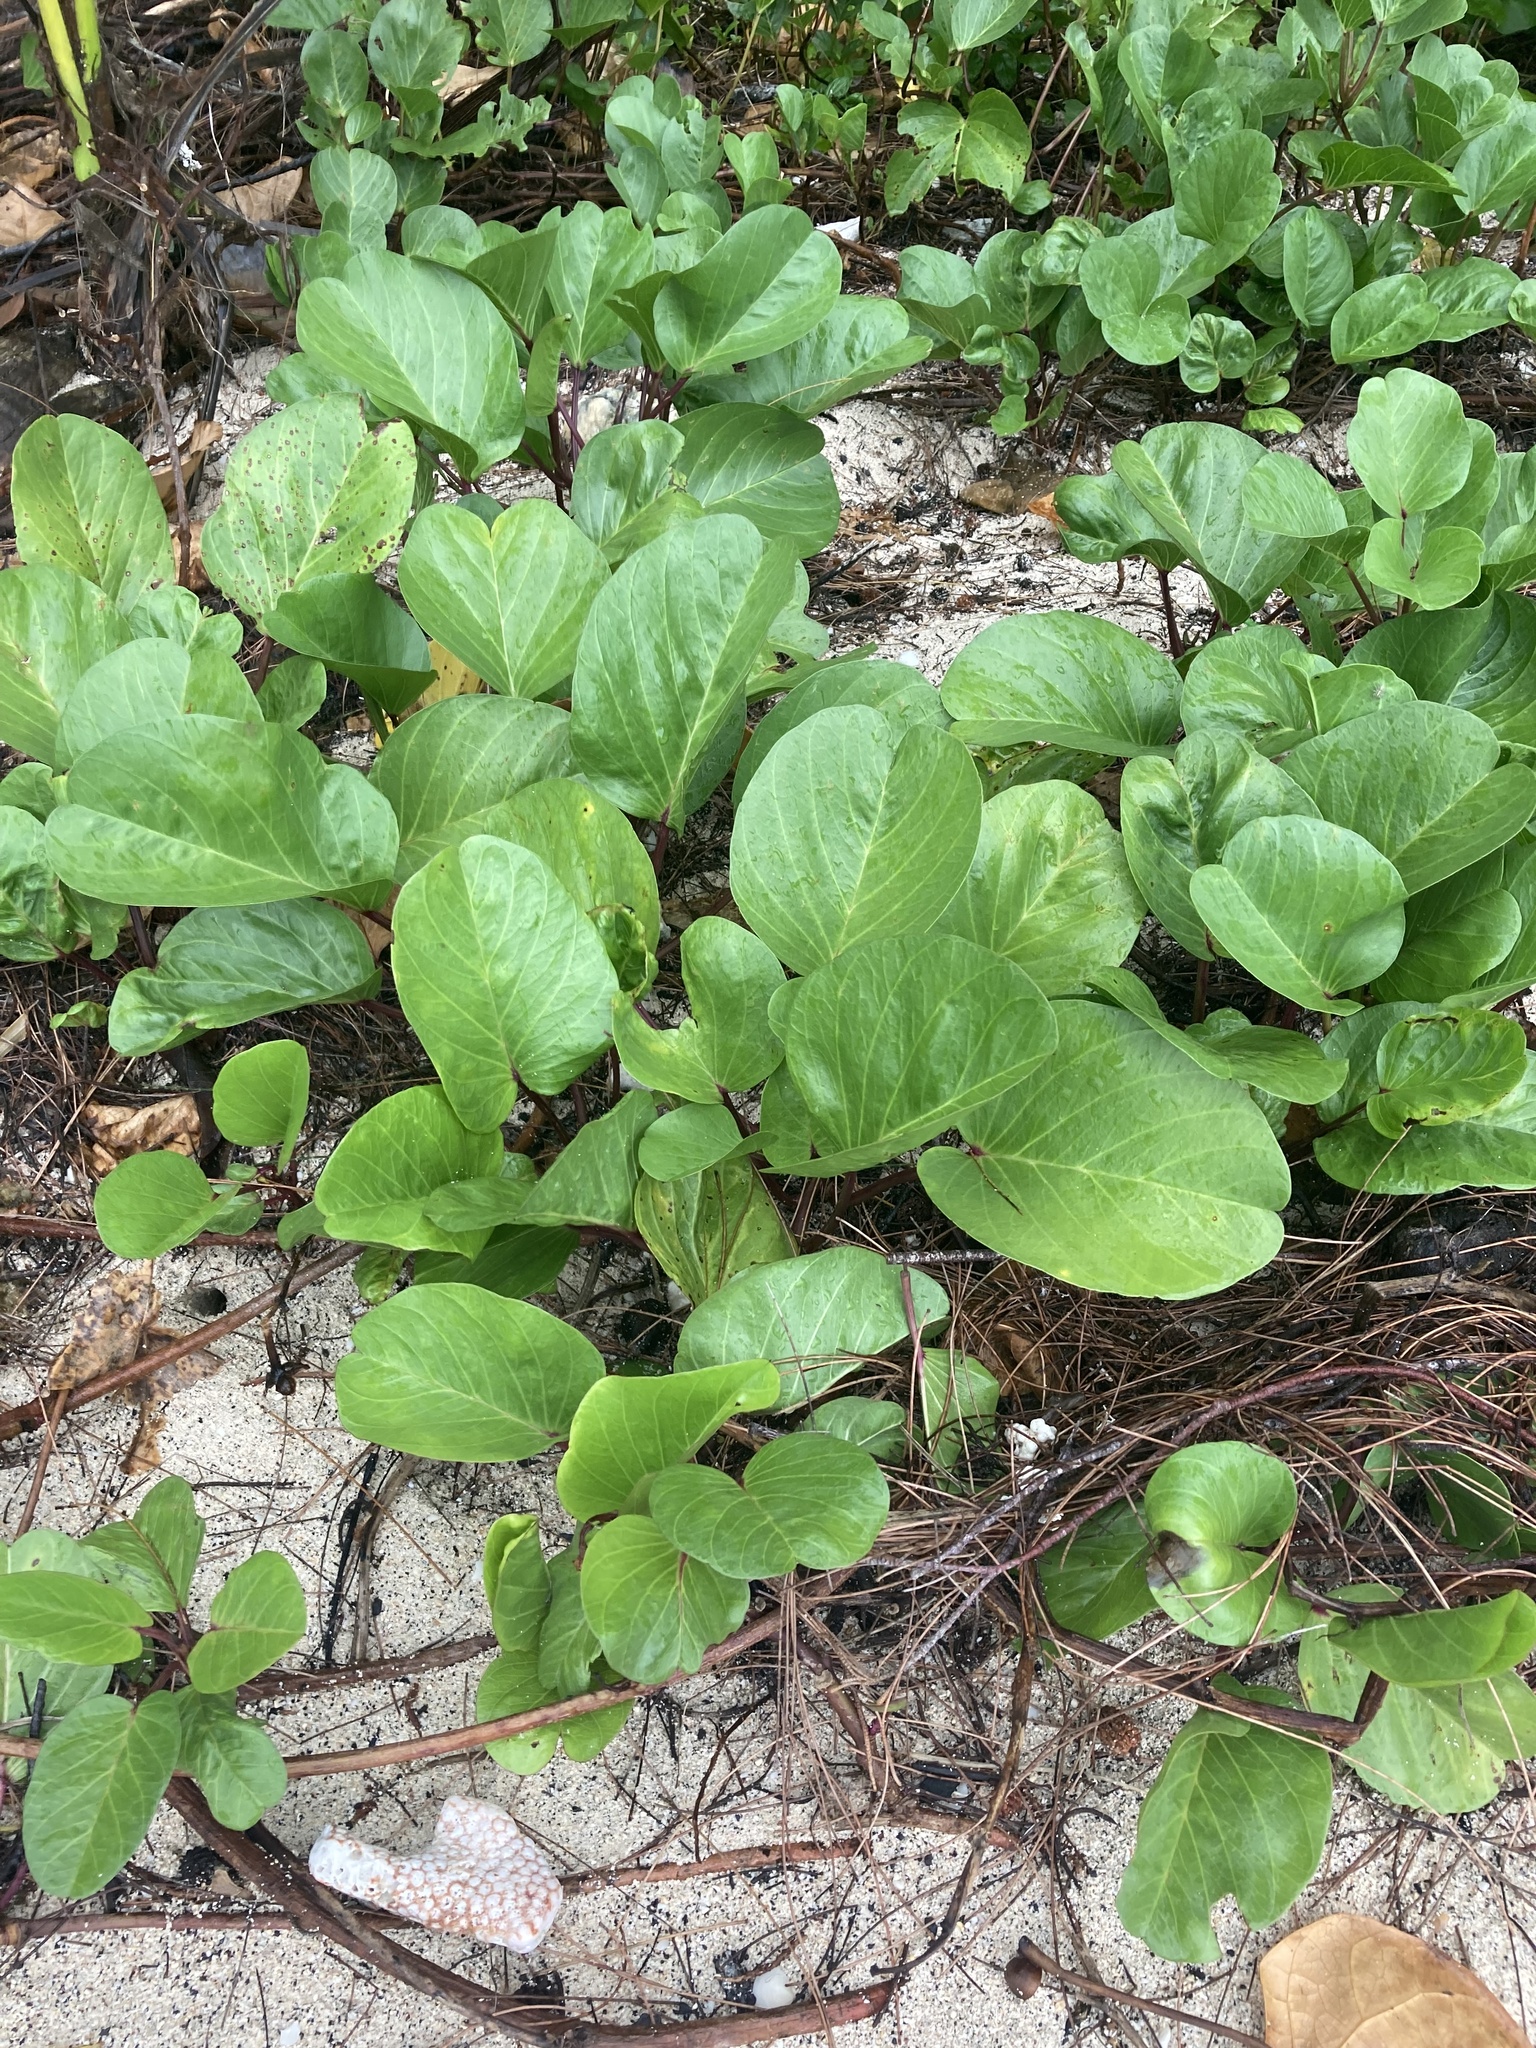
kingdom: Plantae
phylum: Tracheophyta
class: Magnoliopsida
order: Solanales
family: Convolvulaceae
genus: Ipomoea
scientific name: Ipomoea pes-caprae
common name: Beach morning glory
